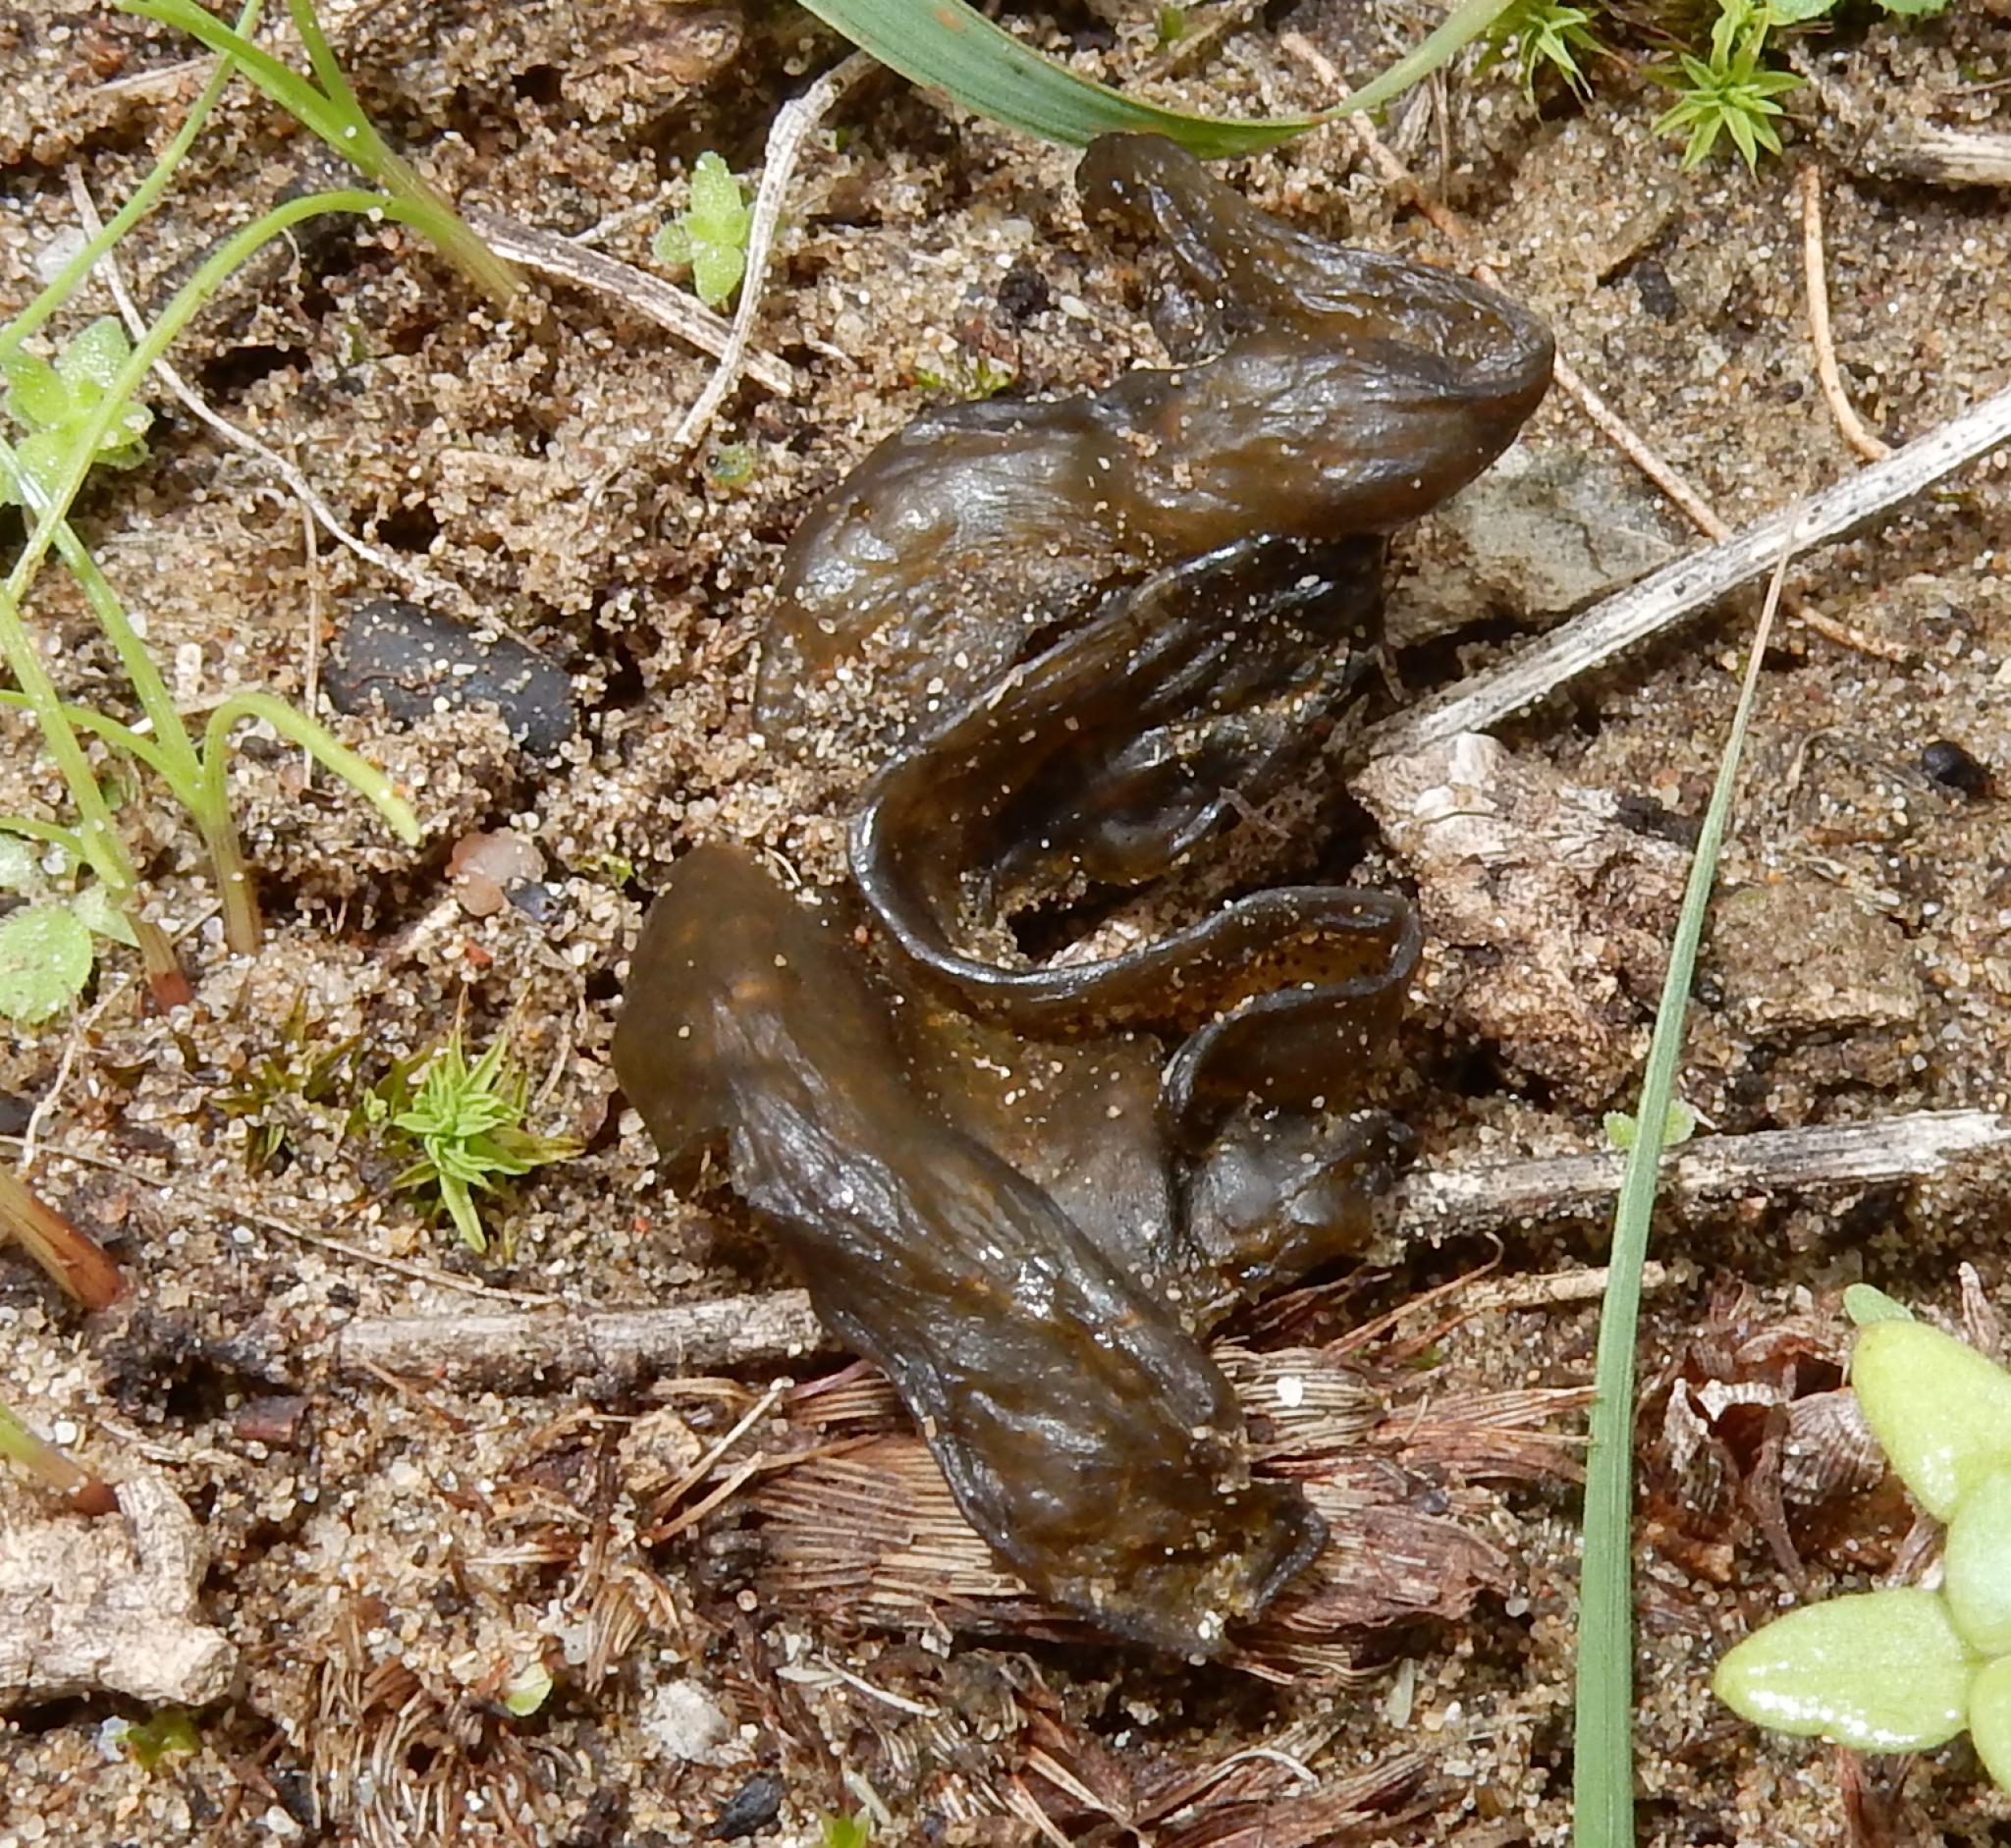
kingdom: Bacteria
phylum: Cyanobacteria
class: Cyanobacteriia
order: Cyanobacteriales
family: Nostocaceae
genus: Nostoc
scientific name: Nostoc commune
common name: Star jelly
